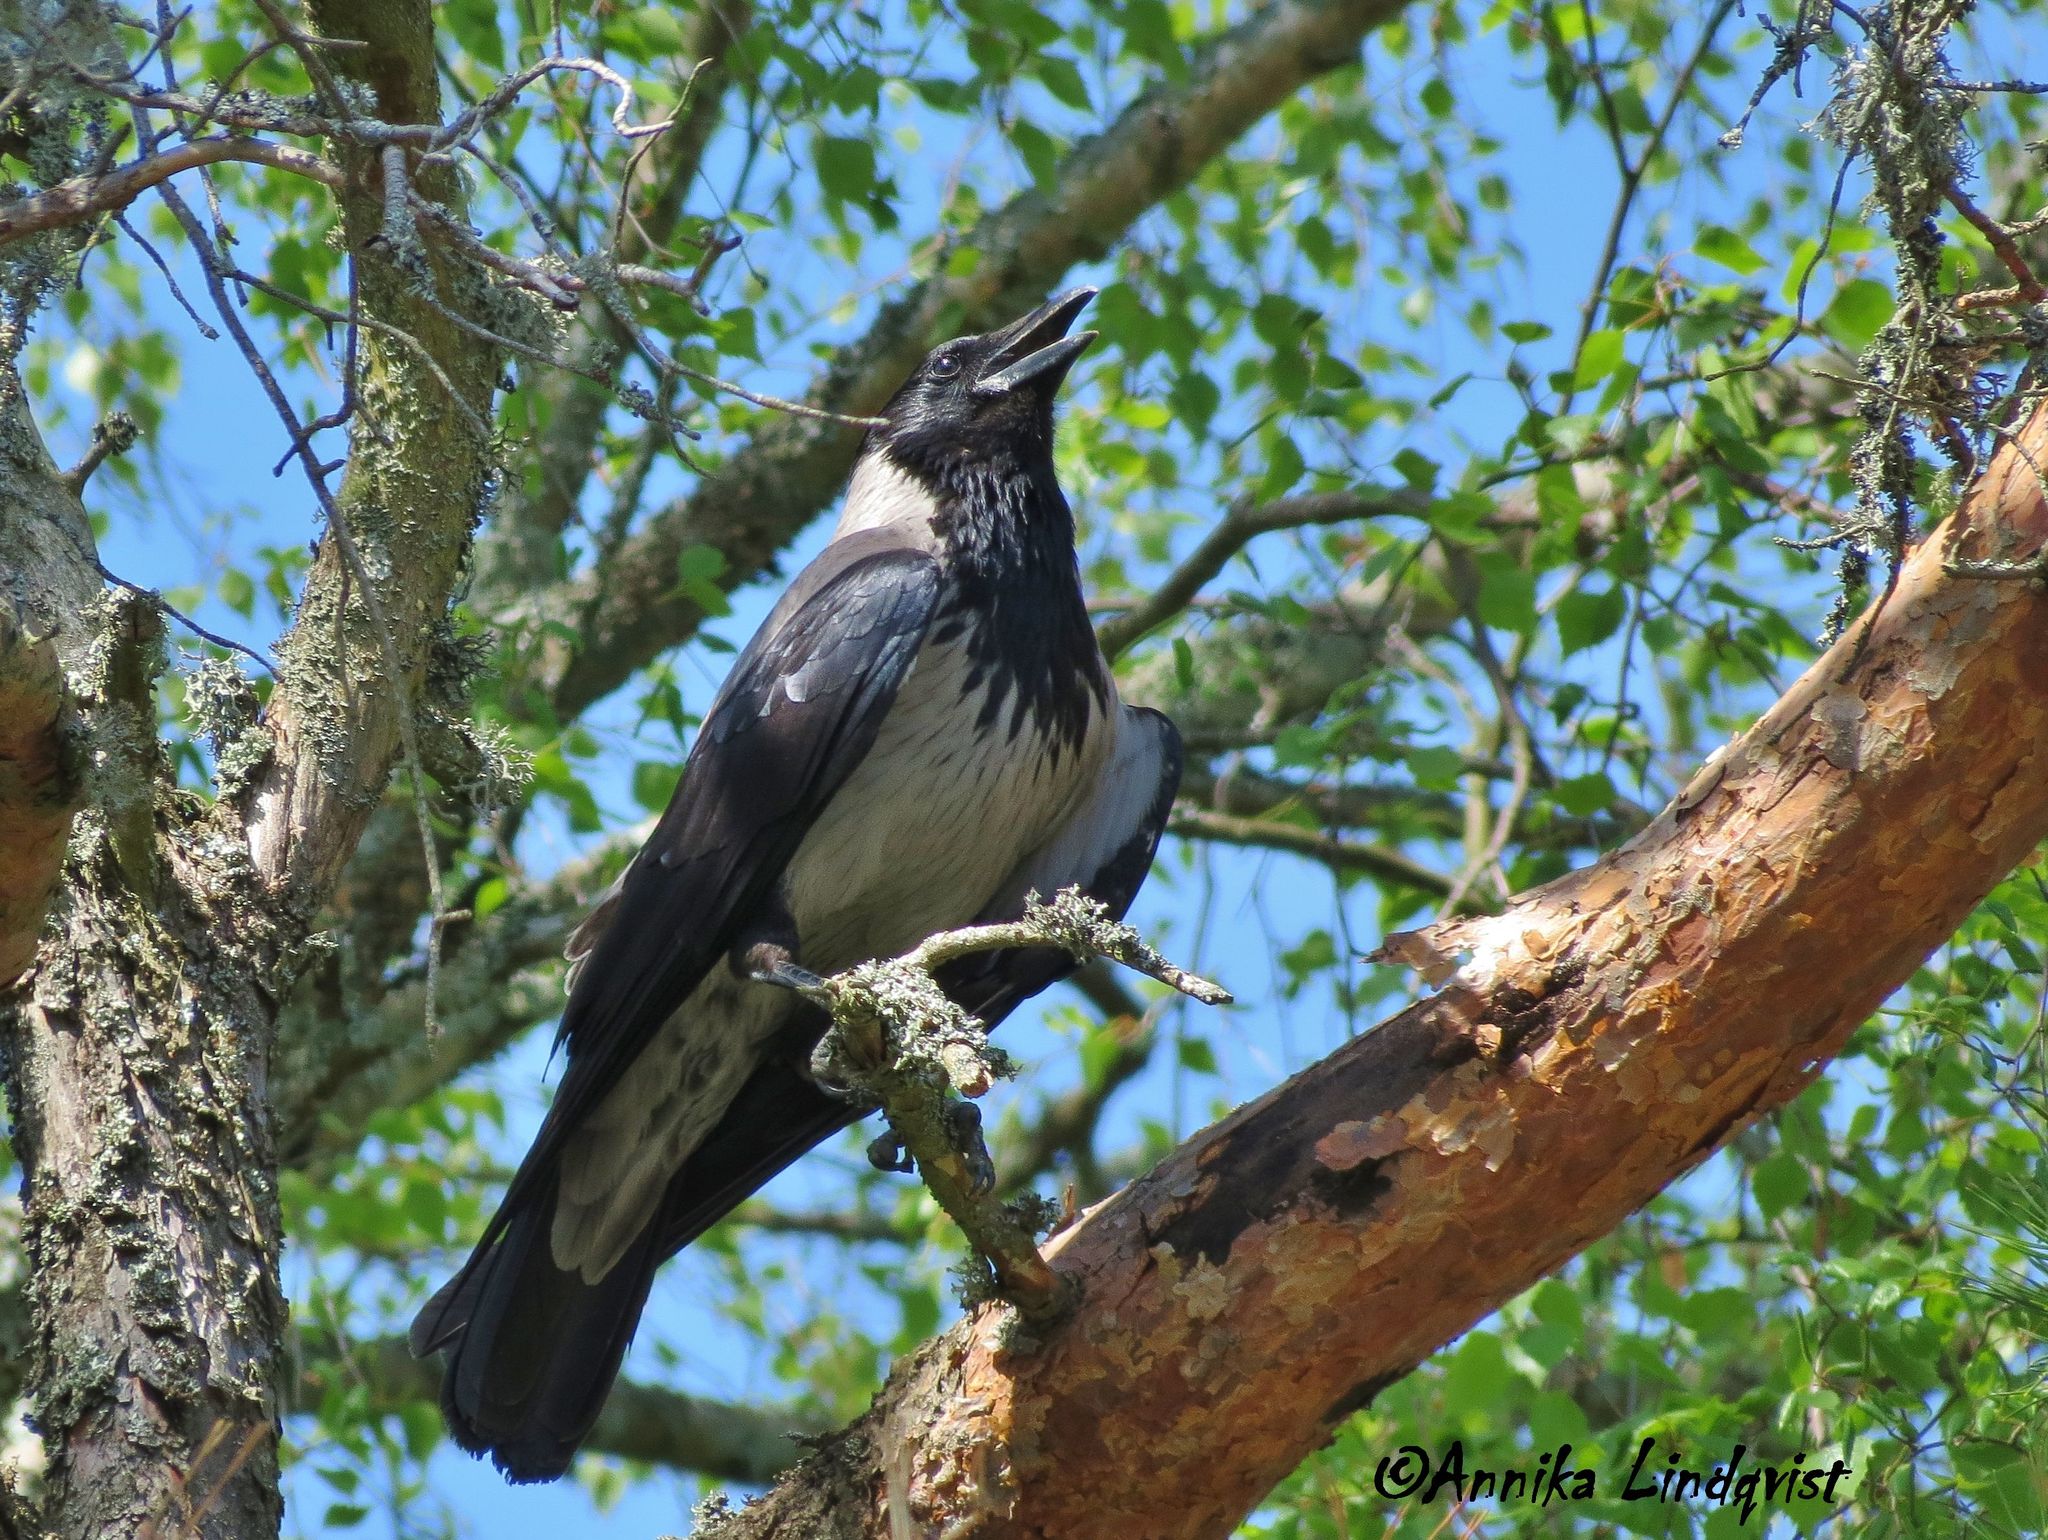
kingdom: Animalia
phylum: Chordata
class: Aves
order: Passeriformes
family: Corvidae
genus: Corvus
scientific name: Corvus cornix
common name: Hooded crow
